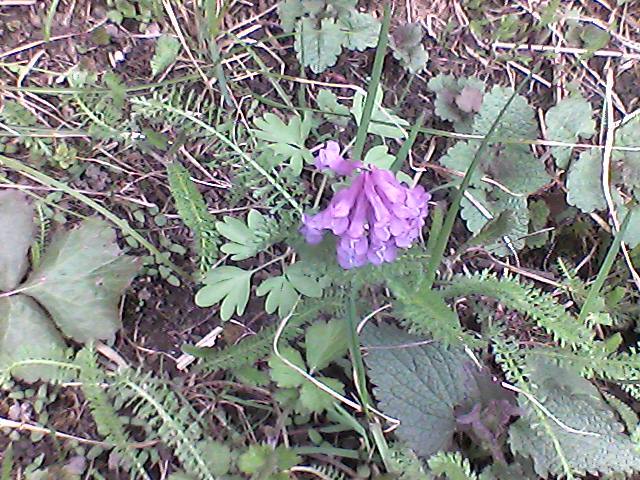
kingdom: Plantae
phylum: Tracheophyta
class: Magnoliopsida
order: Ranunculales
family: Papaveraceae
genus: Corydalis
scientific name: Corydalis solida
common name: Bird-in-a-bush
